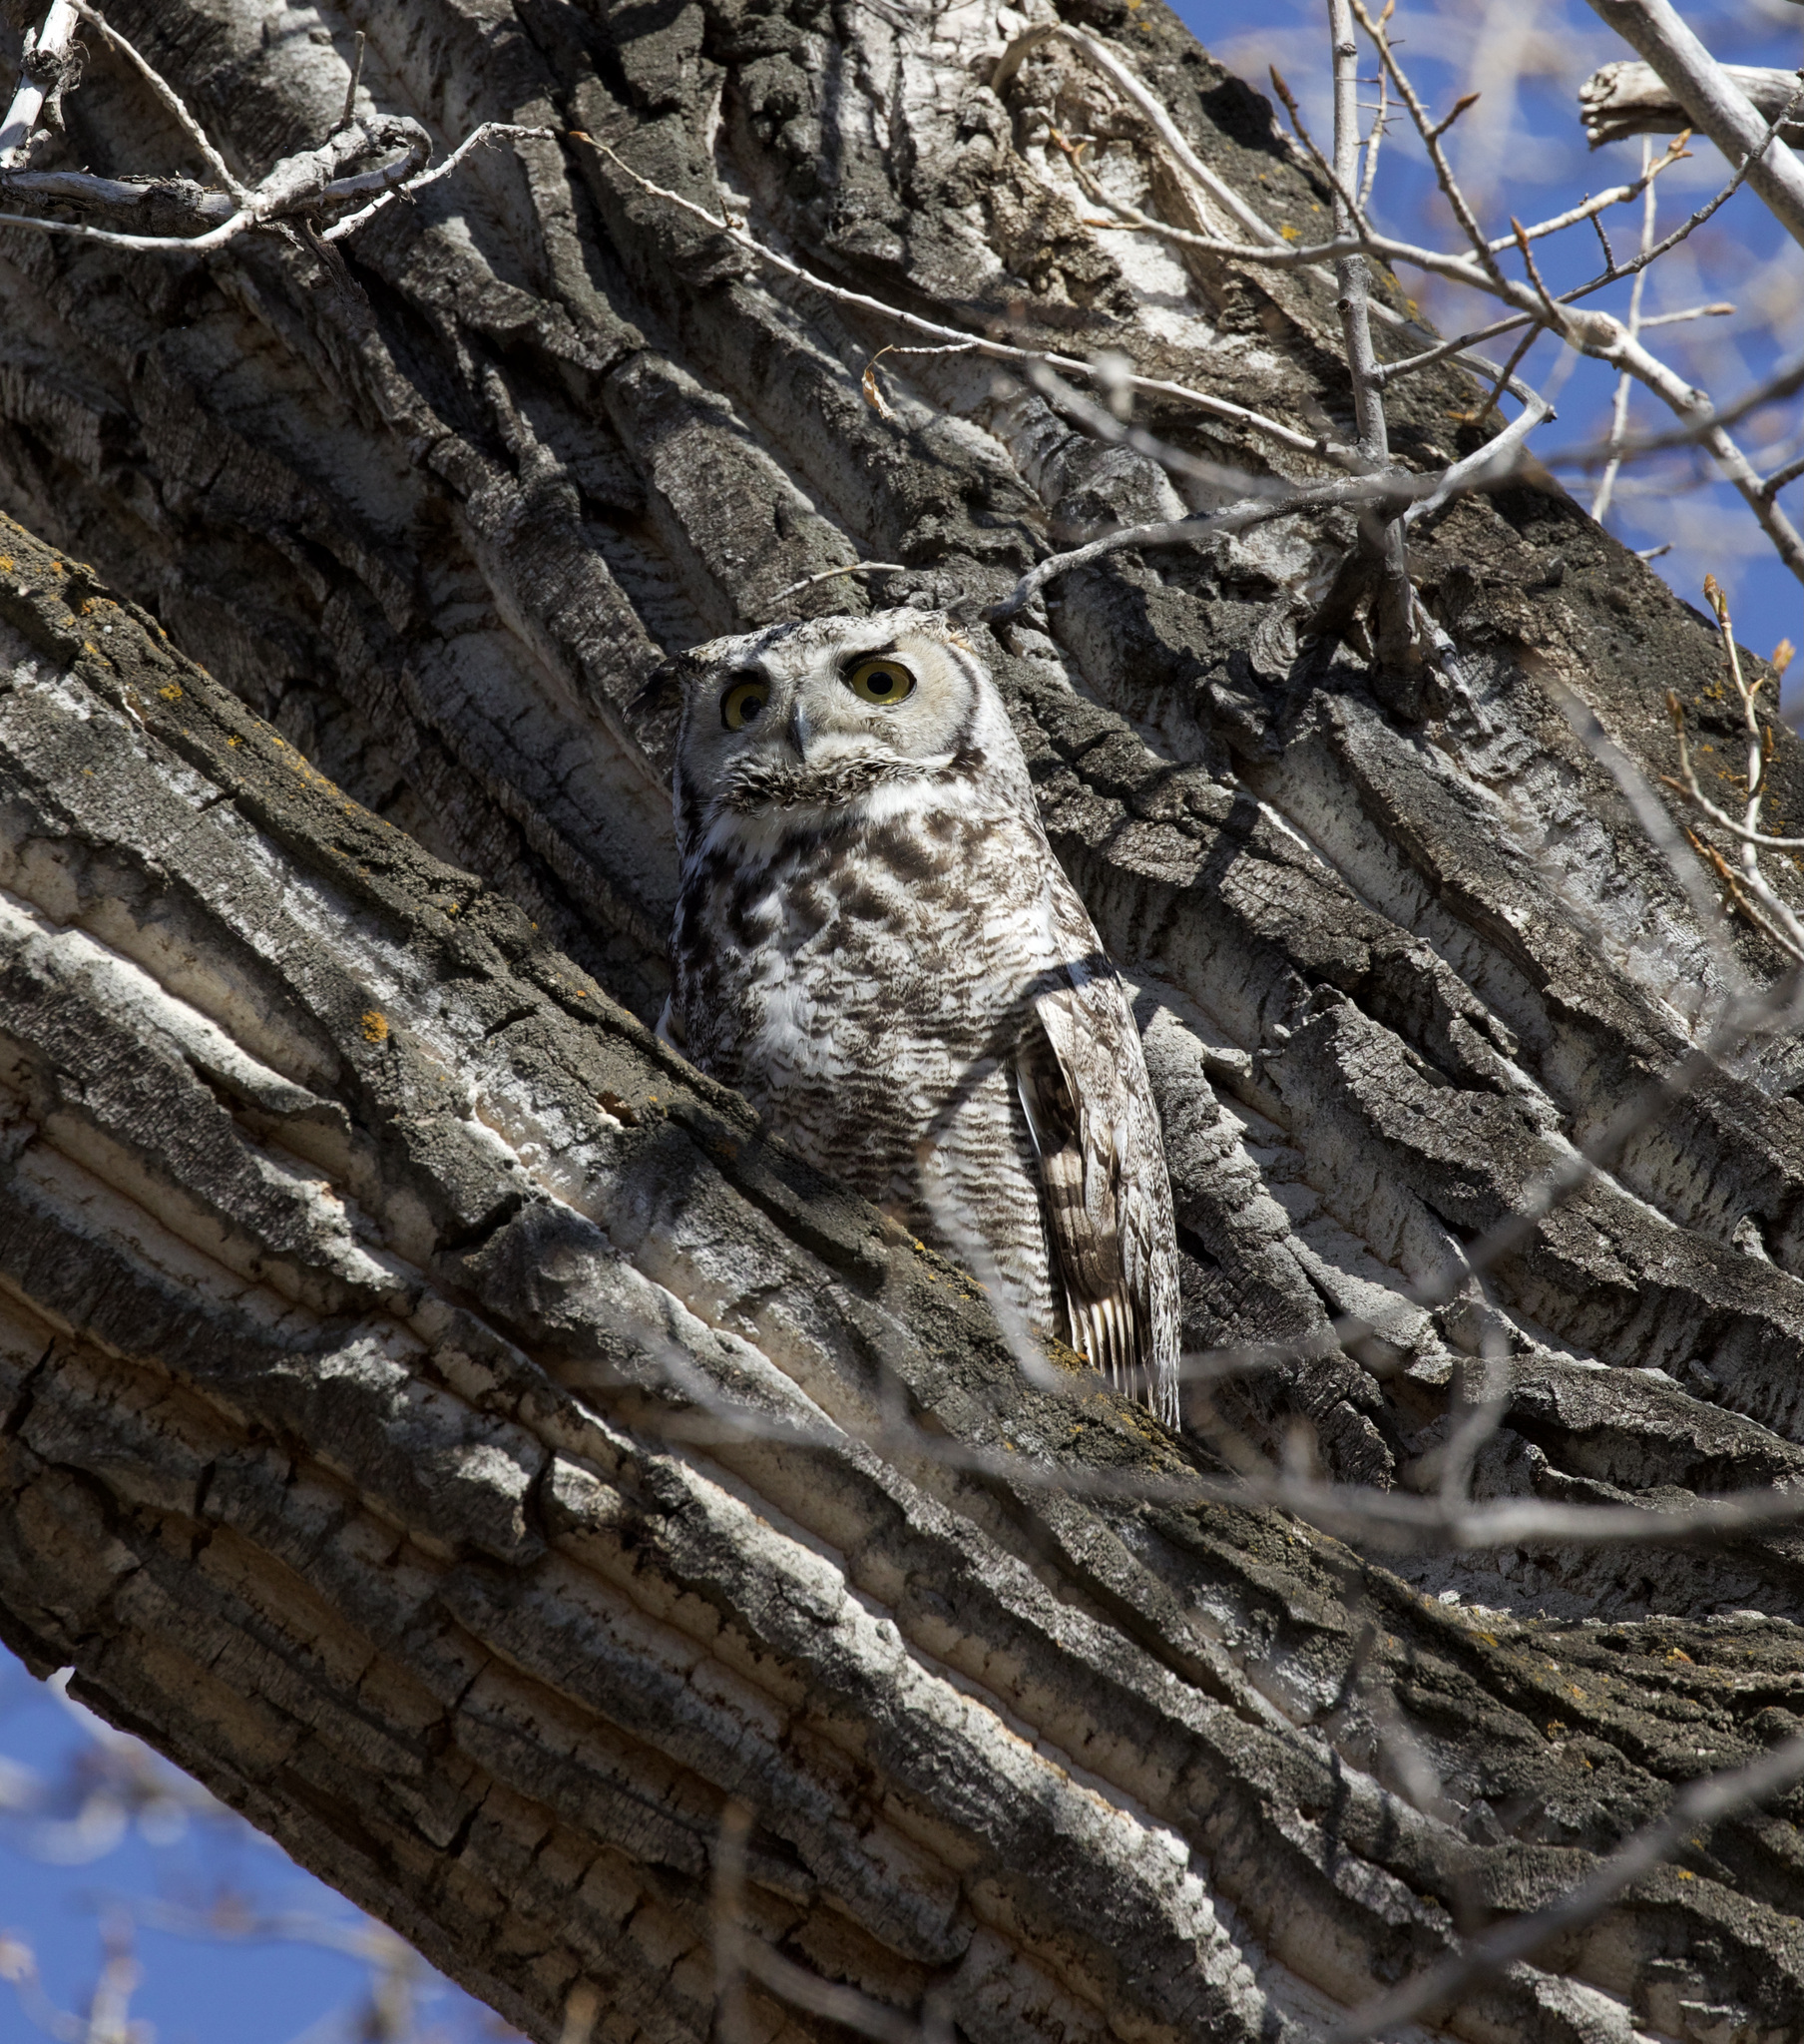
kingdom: Animalia
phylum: Chordata
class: Aves
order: Strigiformes
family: Strigidae
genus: Bubo
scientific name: Bubo virginianus
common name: Great horned owl
